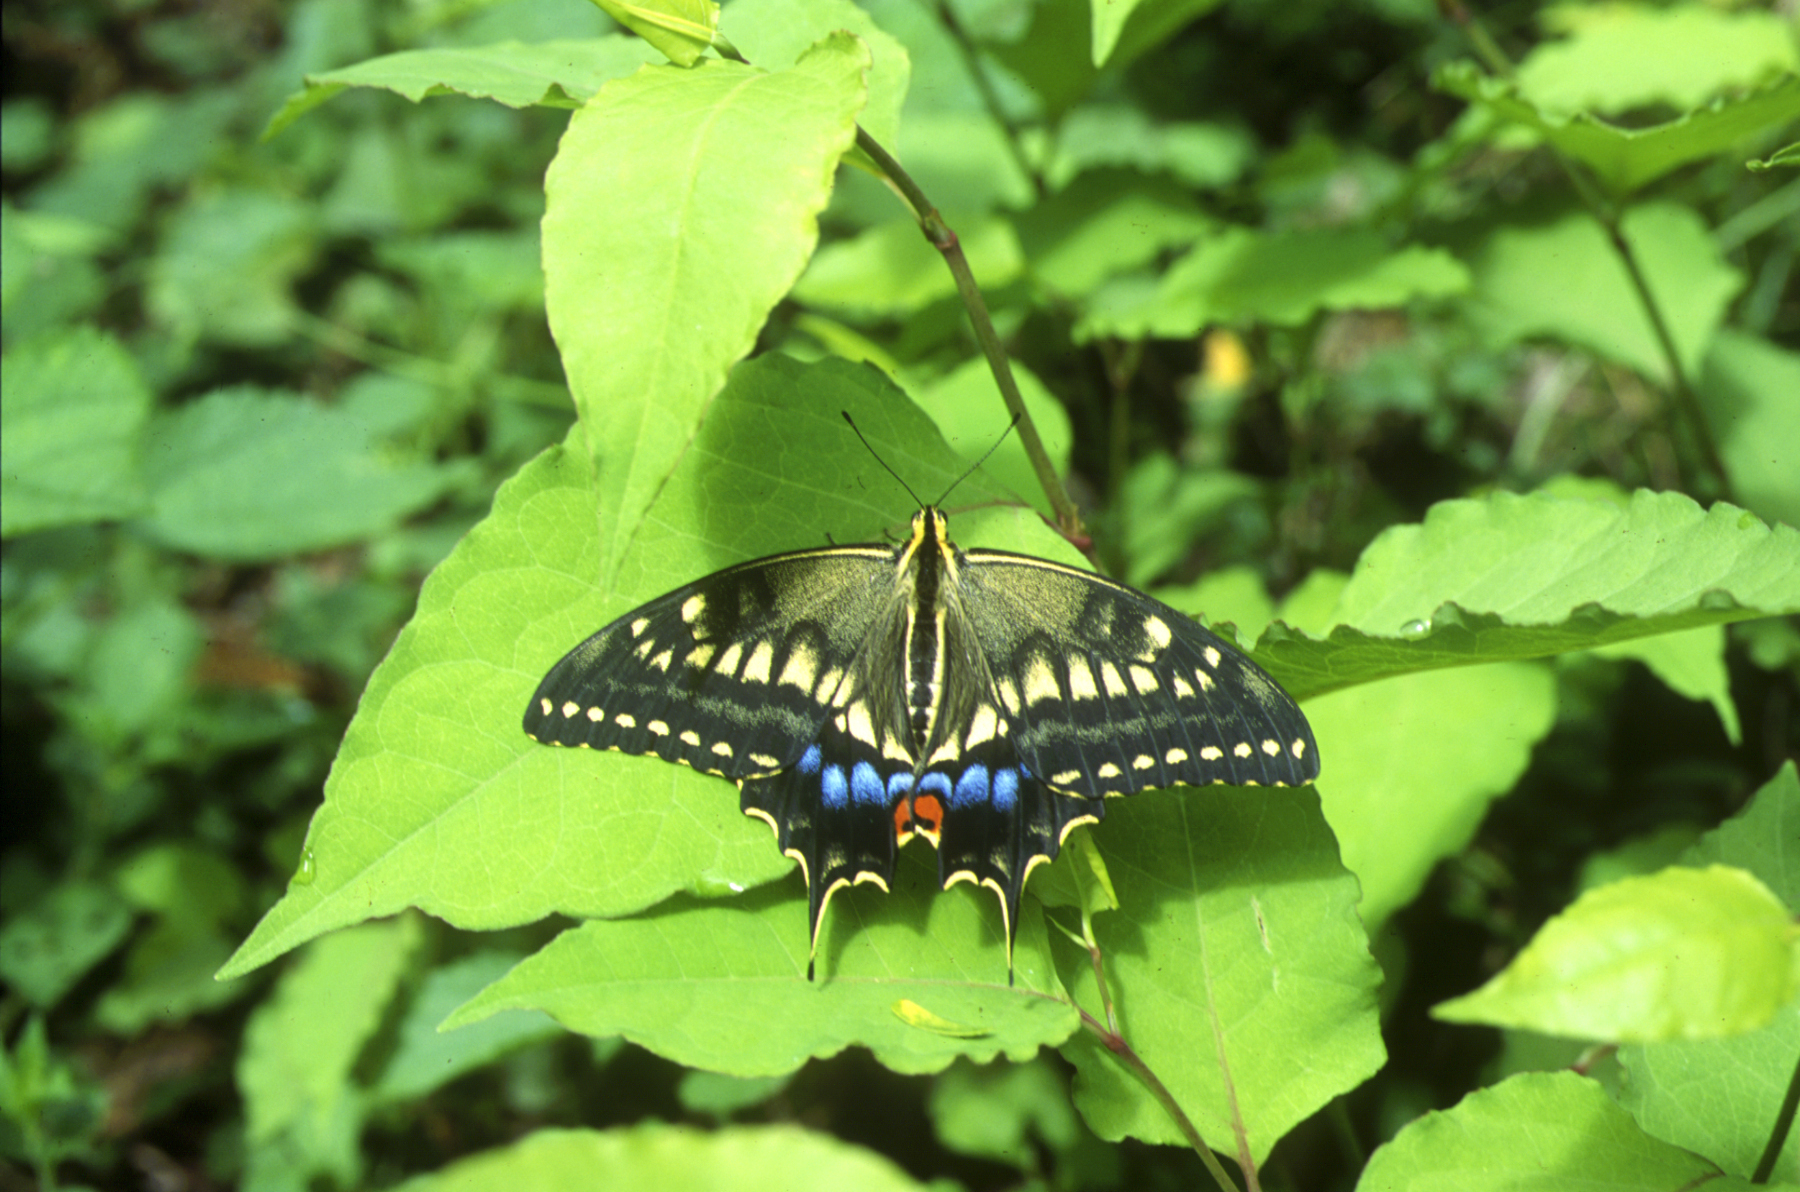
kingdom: Animalia
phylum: Arthropoda
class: Insecta
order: Lepidoptera
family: Papilionidae
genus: Papilio
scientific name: Papilio machaon
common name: Swallowtail
